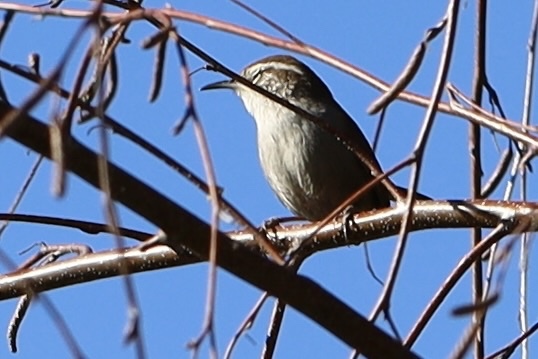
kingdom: Animalia
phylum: Chordata
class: Aves
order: Passeriformes
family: Troglodytidae
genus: Thryomanes
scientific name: Thryomanes bewickii
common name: Bewick's wren
